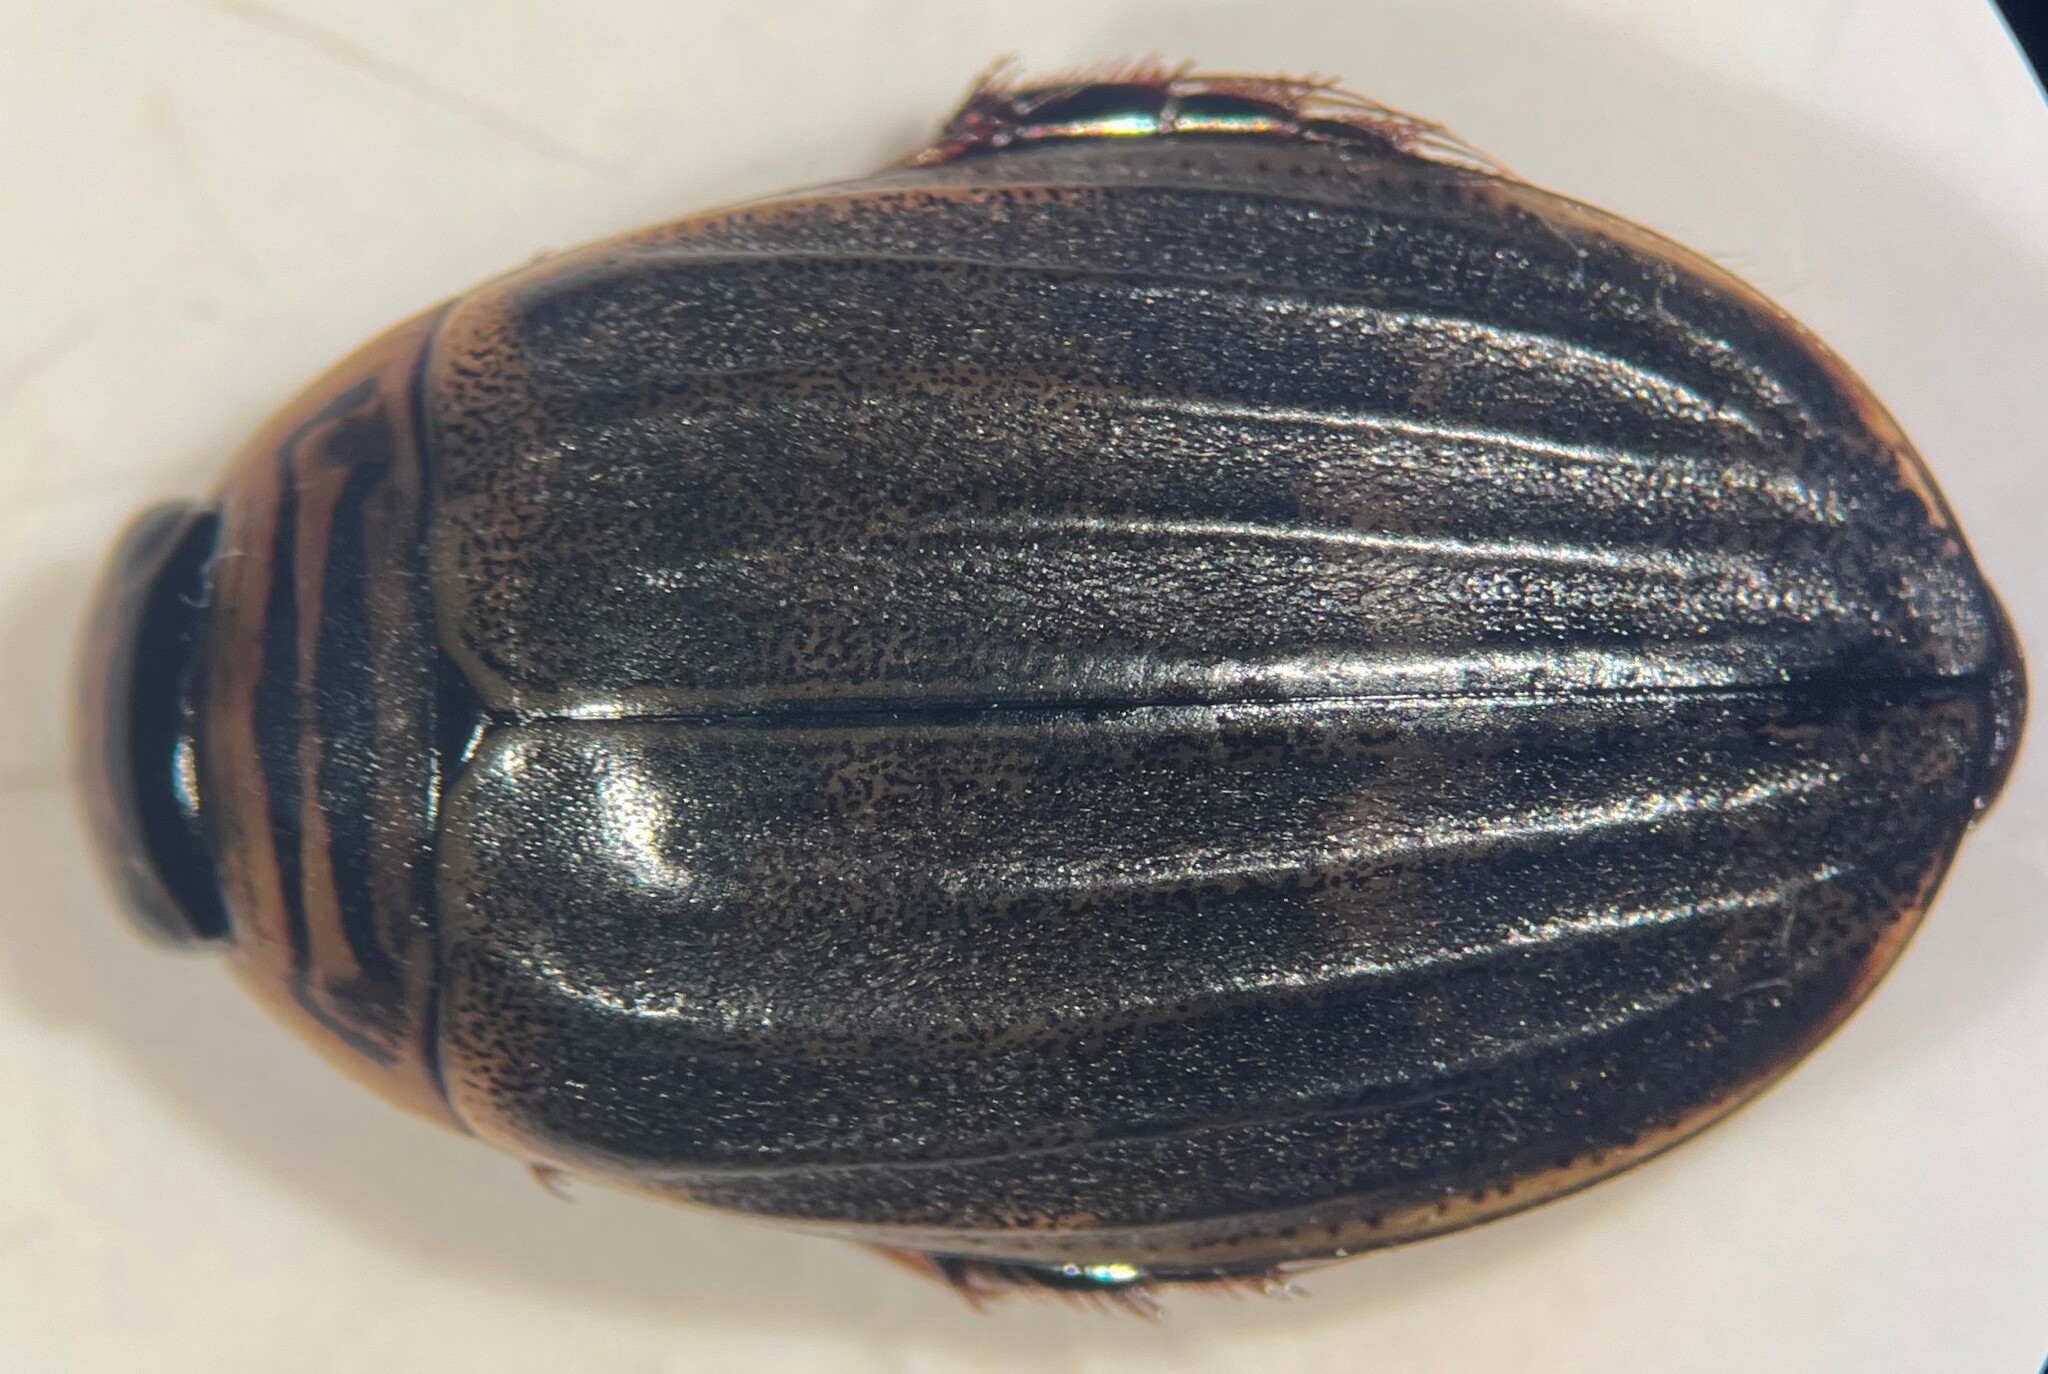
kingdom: Animalia
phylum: Arthropoda
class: Insecta
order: Coleoptera
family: Dytiscidae
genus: Acilius
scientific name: Acilius abbreviatus
